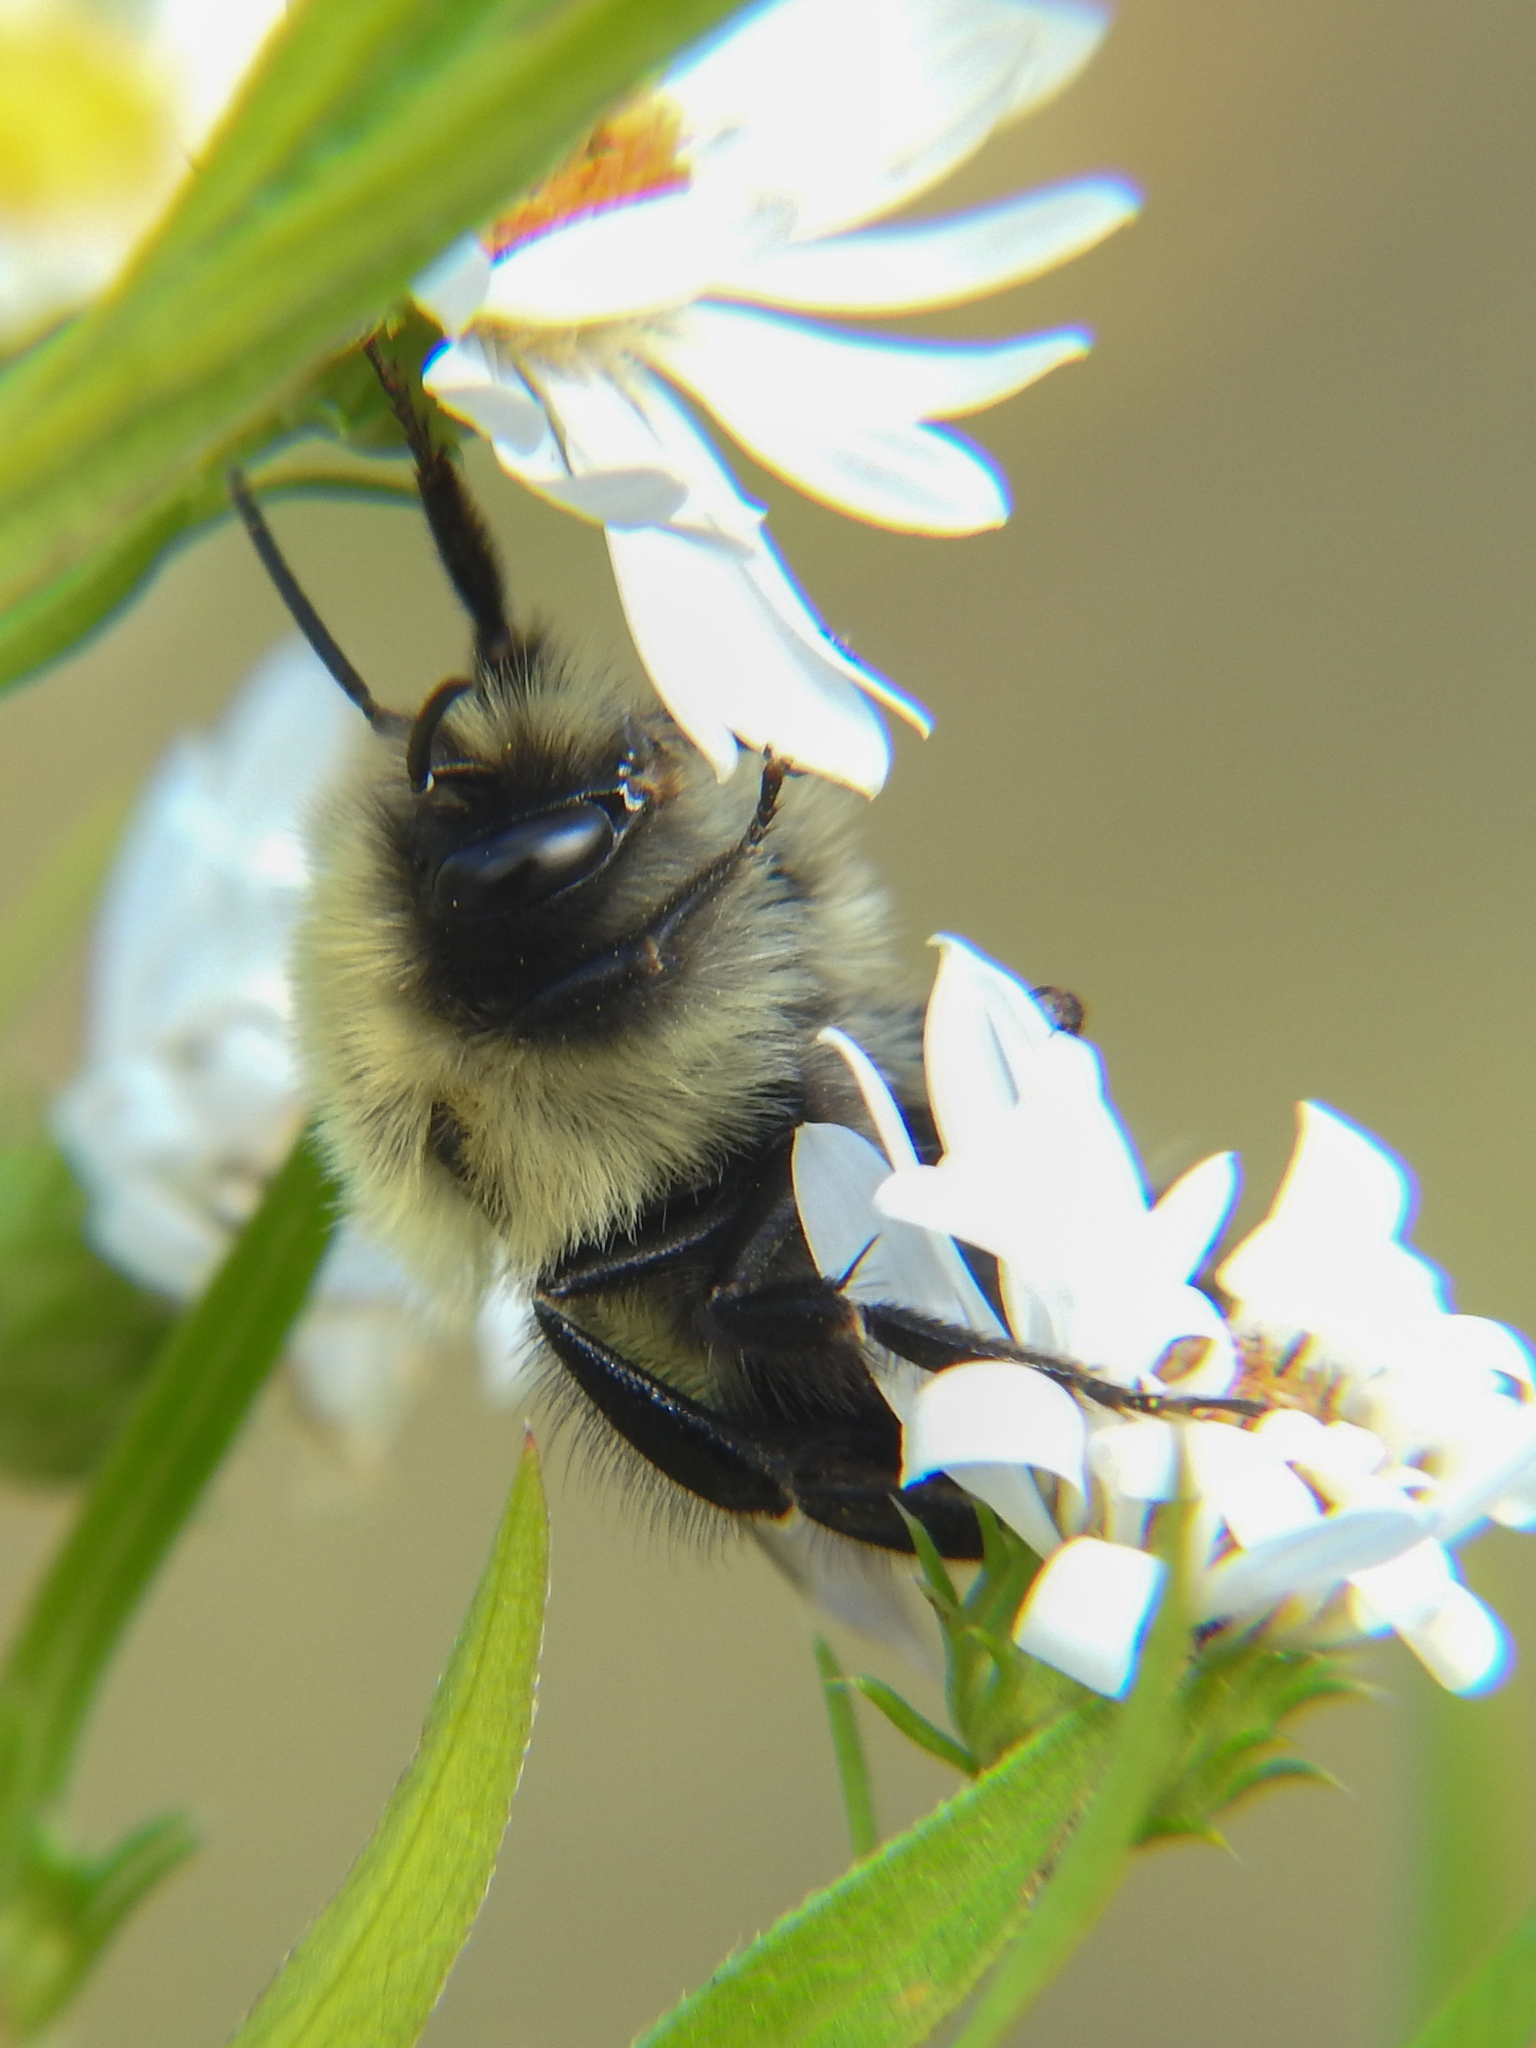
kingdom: Animalia
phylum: Arthropoda
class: Insecta
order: Hymenoptera
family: Apidae
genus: Bombus
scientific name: Bombus impatiens
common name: Common eastern bumble bee
